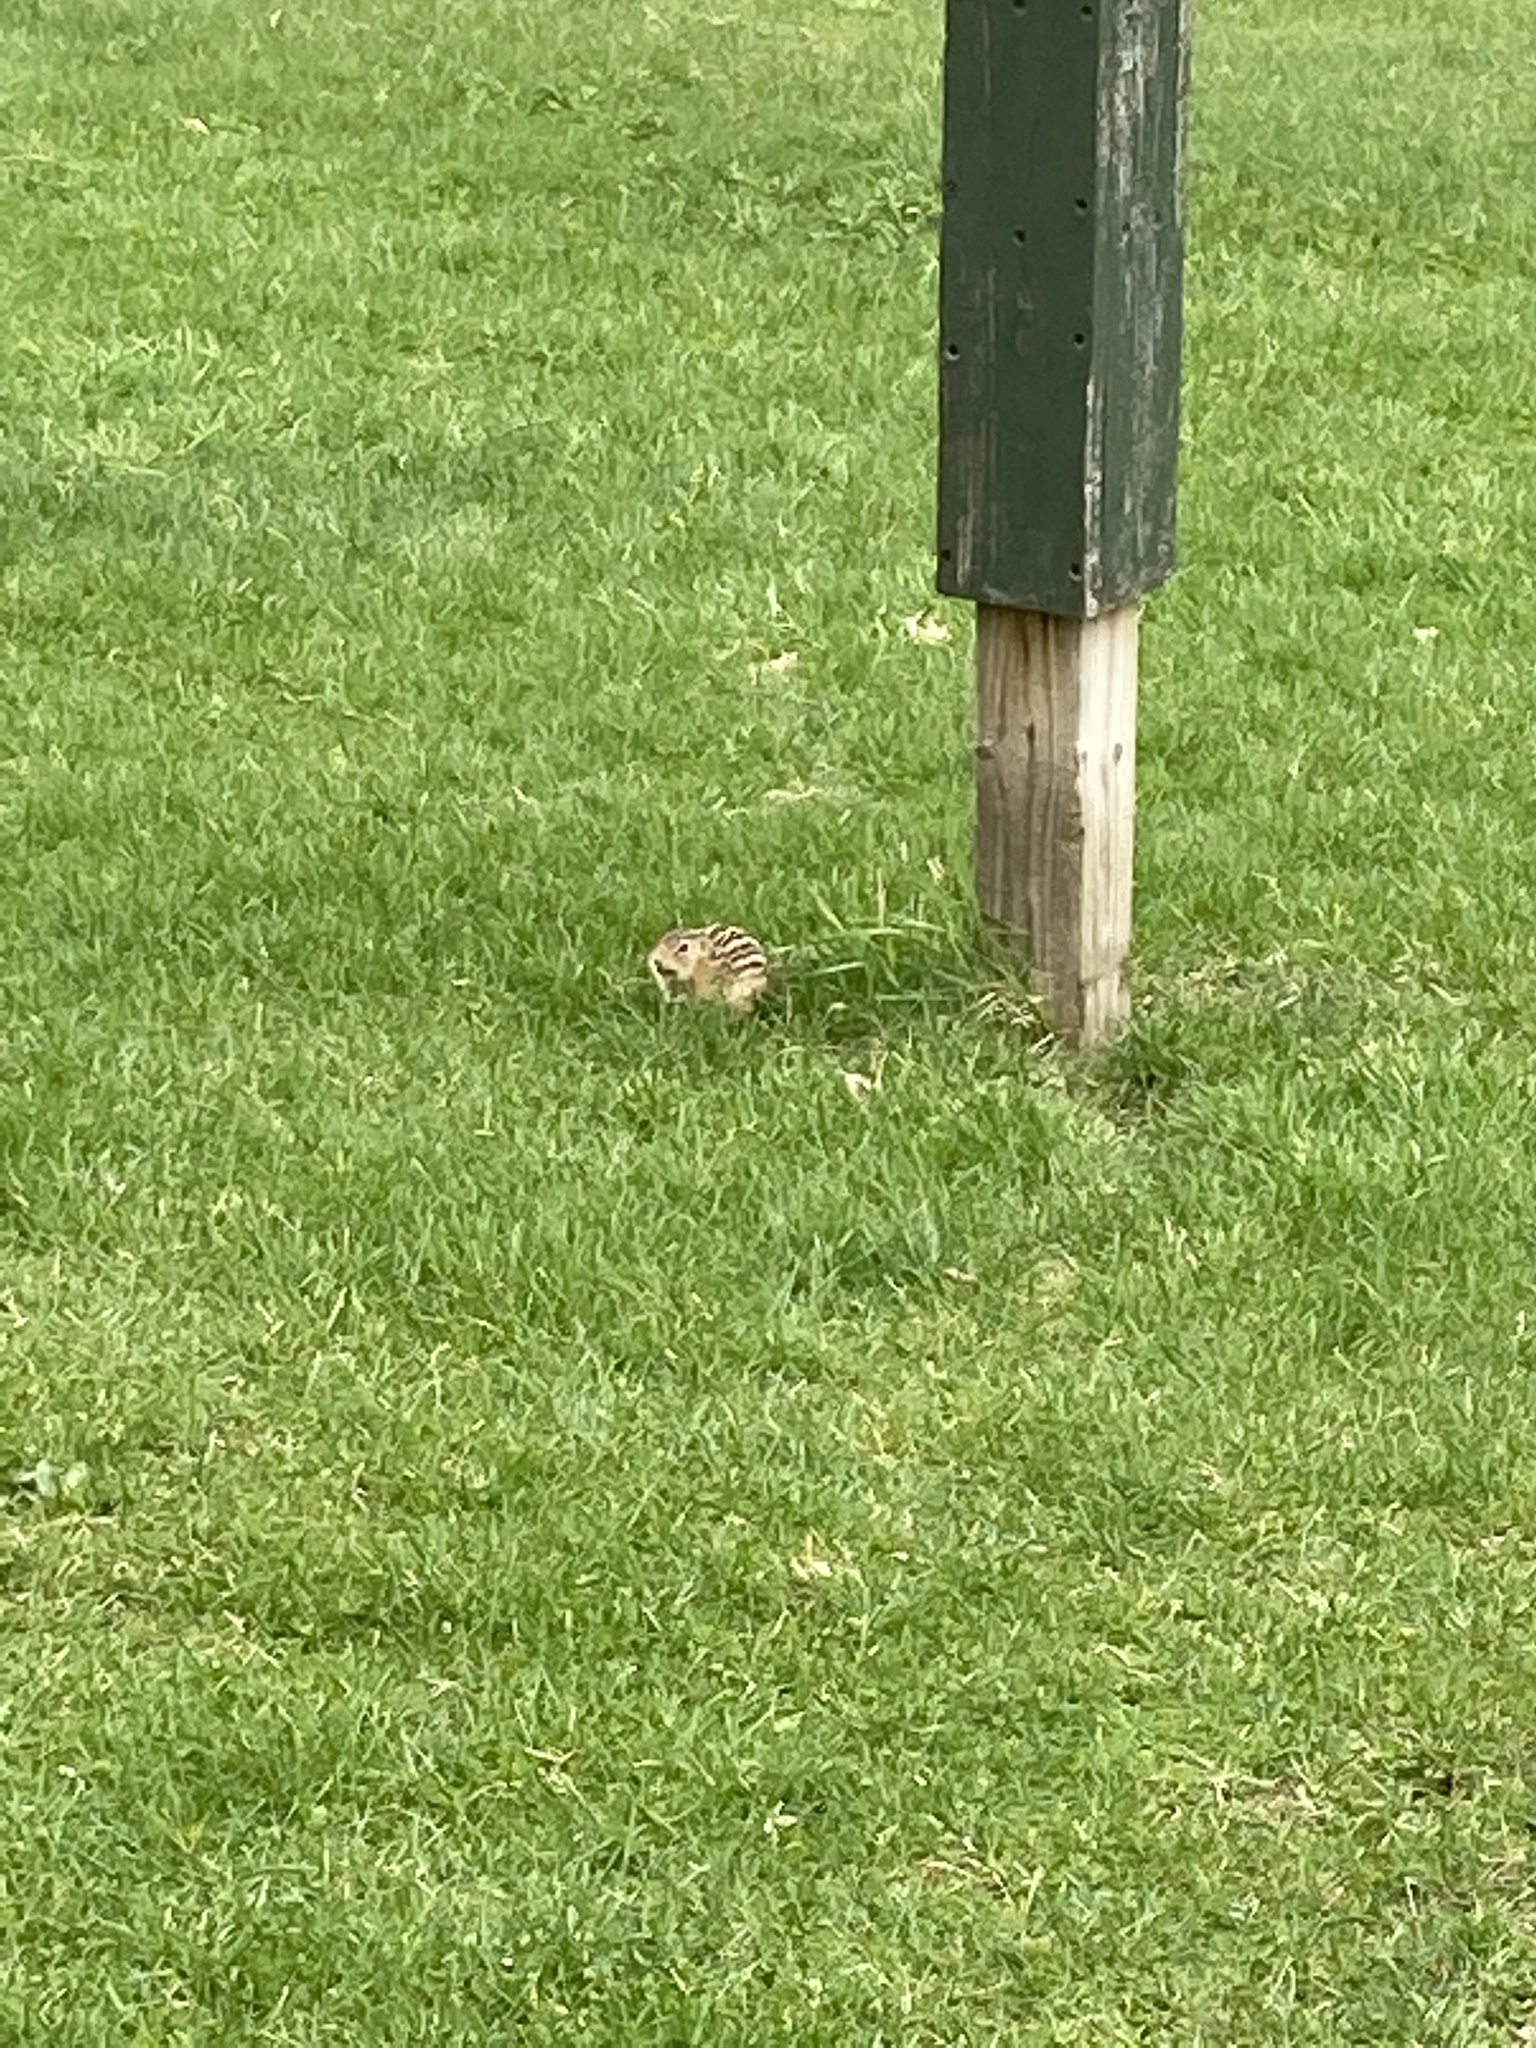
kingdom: Animalia
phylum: Chordata
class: Mammalia
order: Rodentia
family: Sciuridae
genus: Ictidomys
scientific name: Ictidomys tridecemlineatus
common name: Thirteen-lined ground squirrel
